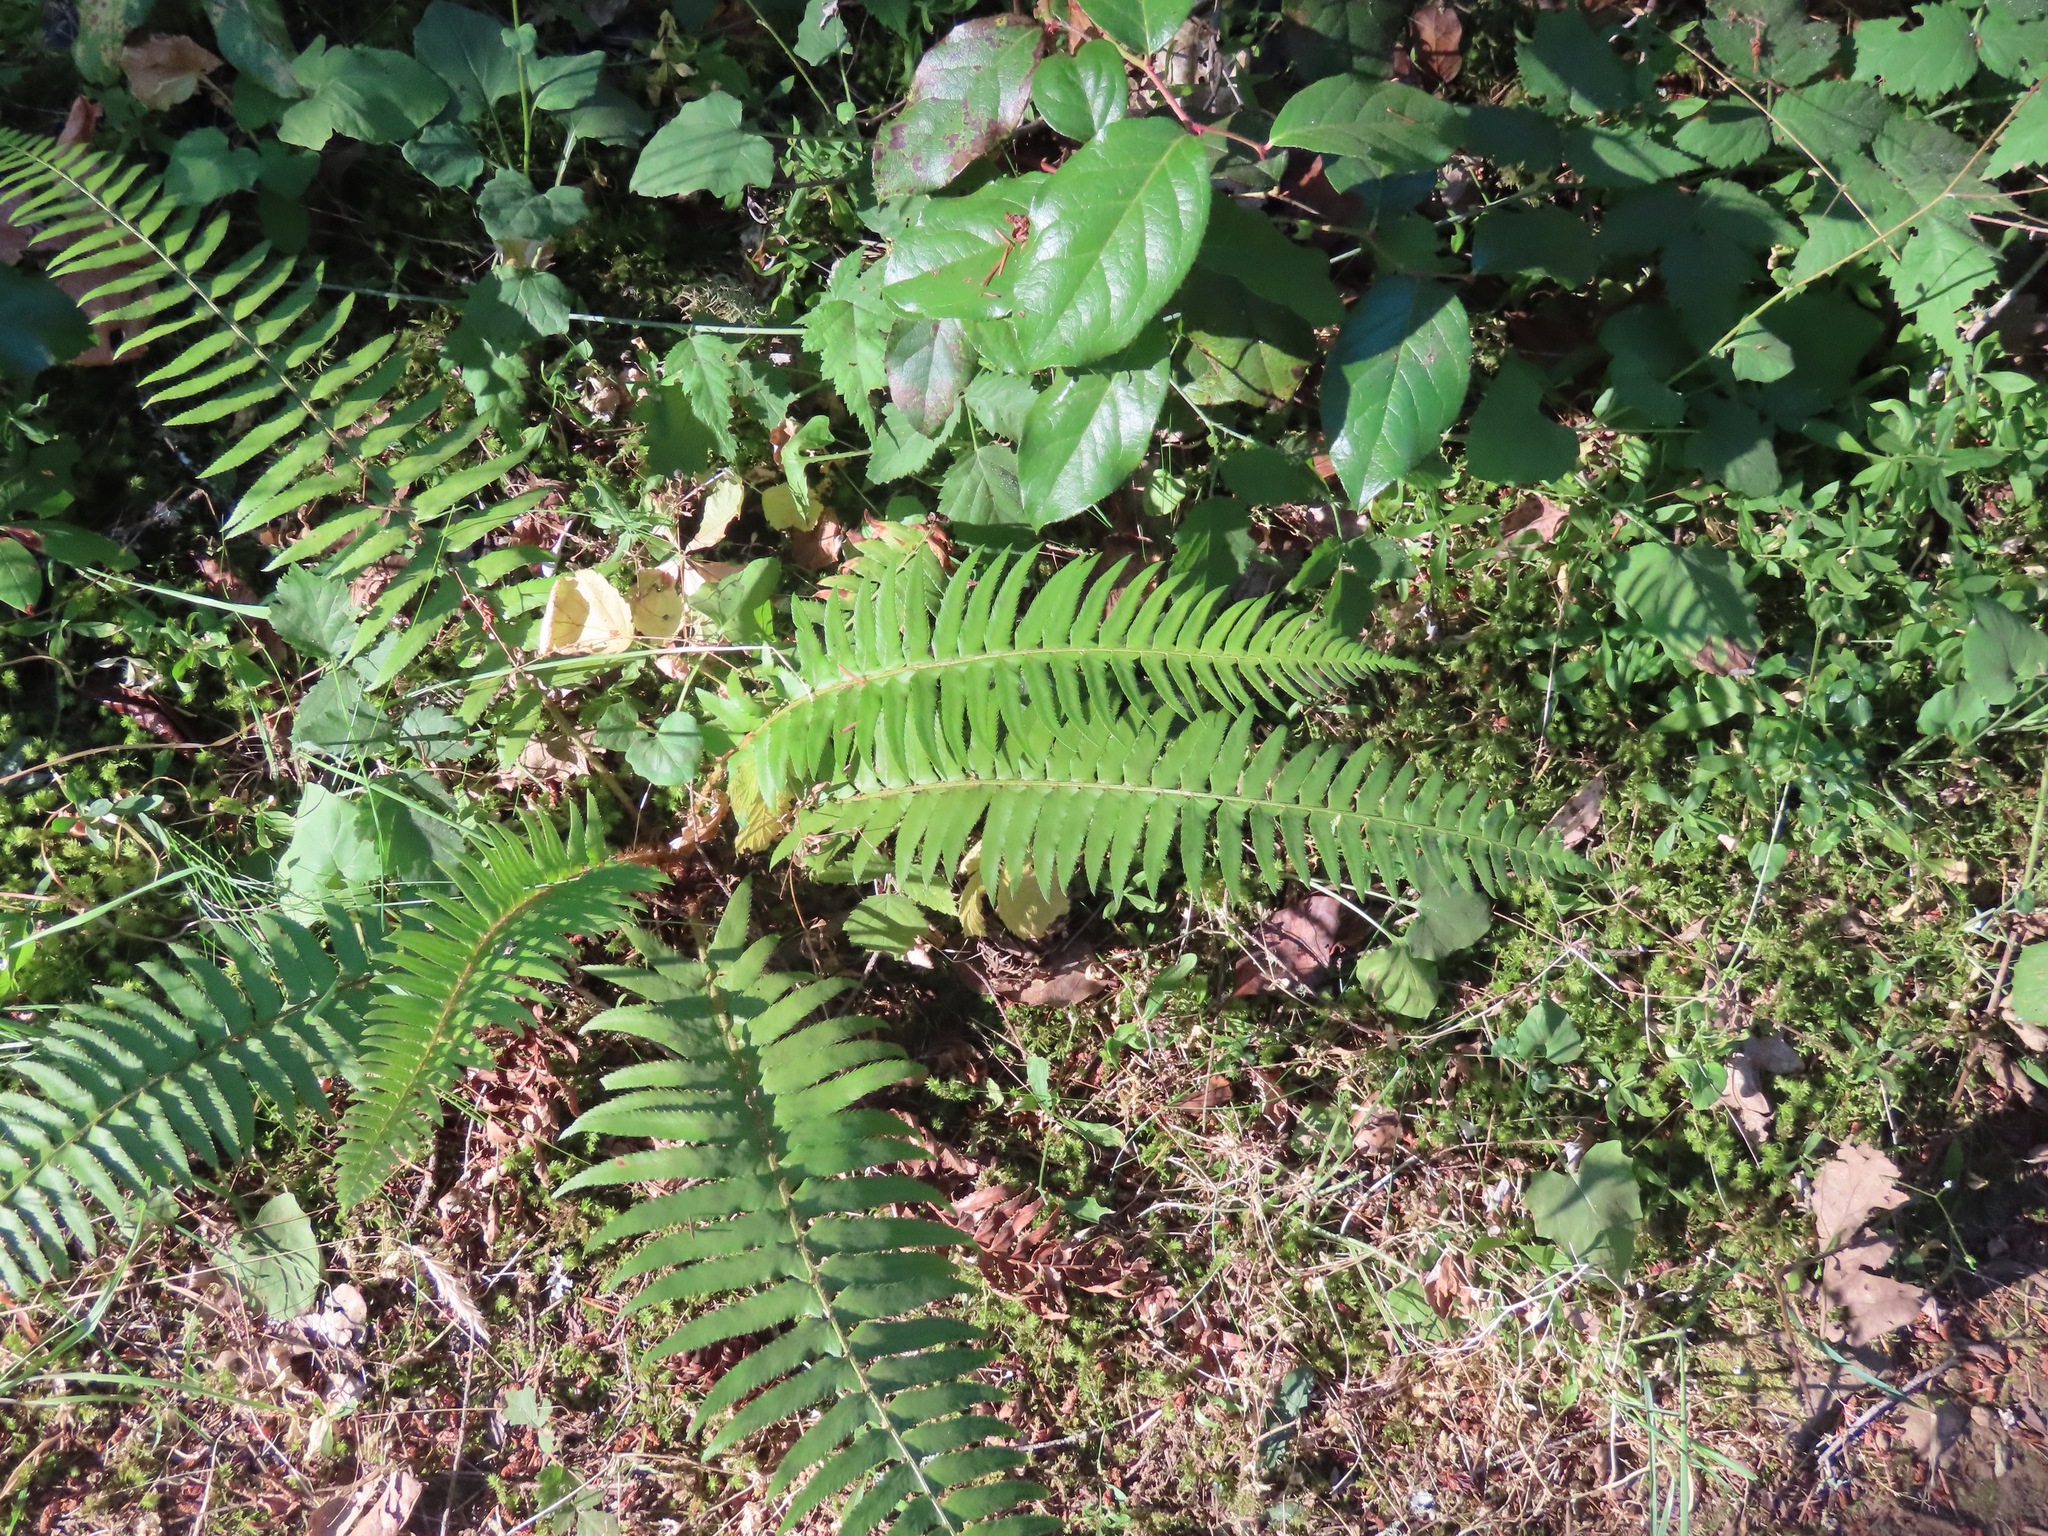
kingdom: Plantae
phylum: Tracheophyta
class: Polypodiopsida
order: Polypodiales
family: Dryopteridaceae
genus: Polystichum
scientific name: Polystichum munitum
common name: Western sword-fern
